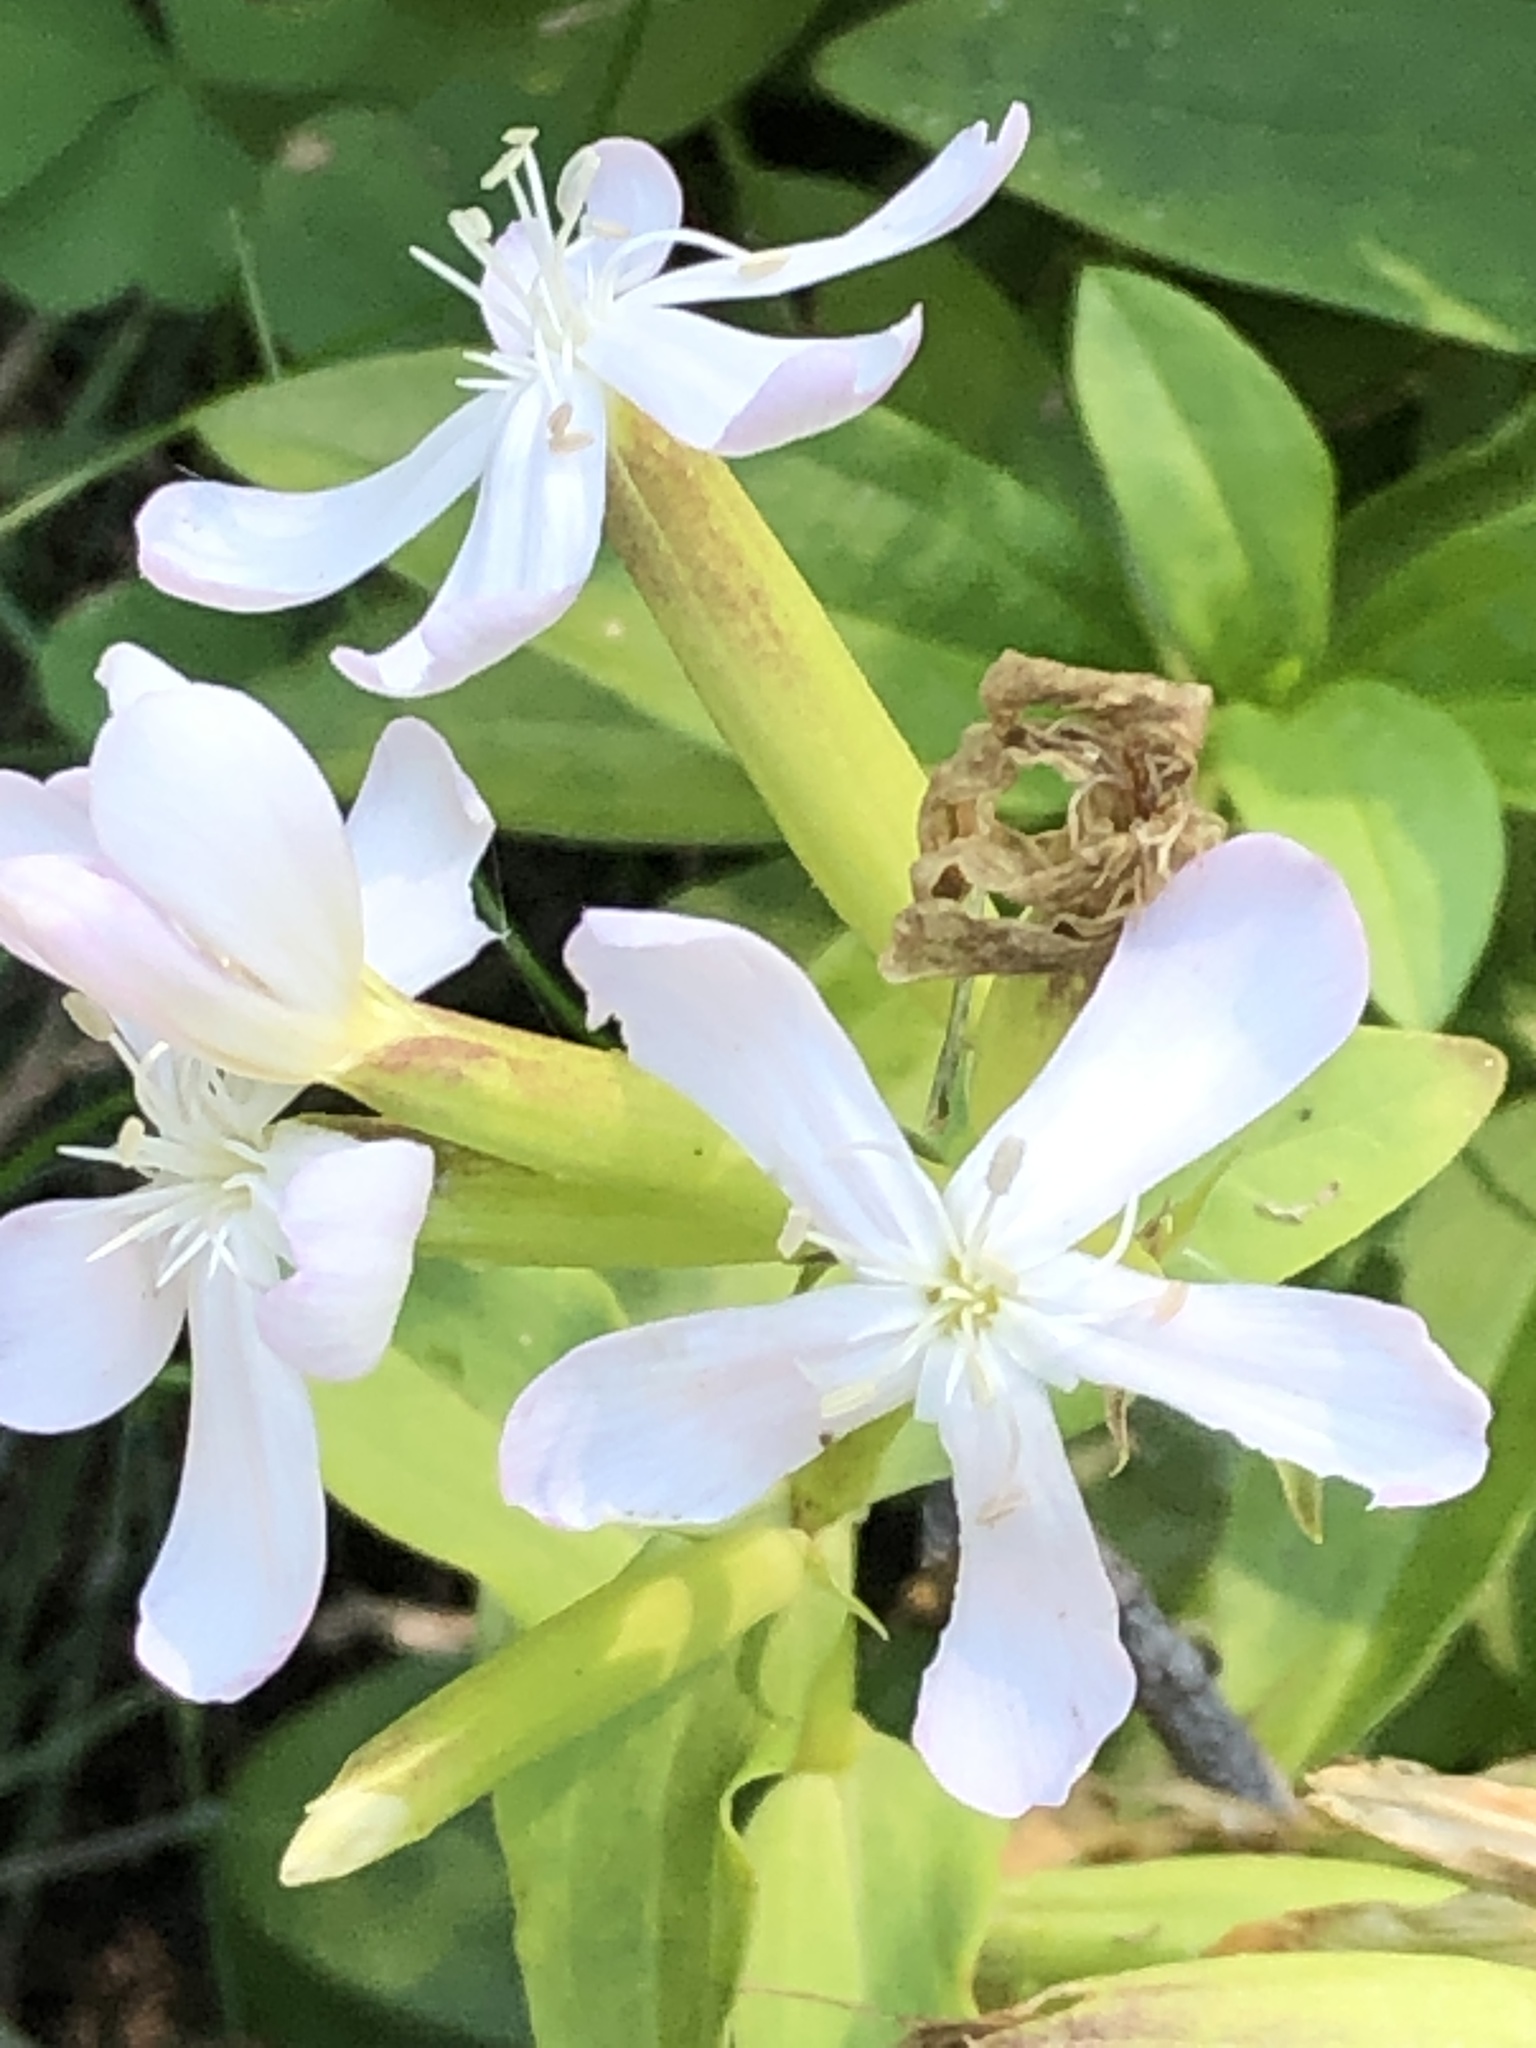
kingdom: Plantae
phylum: Tracheophyta
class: Magnoliopsida
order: Caryophyllales
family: Caryophyllaceae
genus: Saponaria
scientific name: Saponaria officinalis
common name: Soapwort
